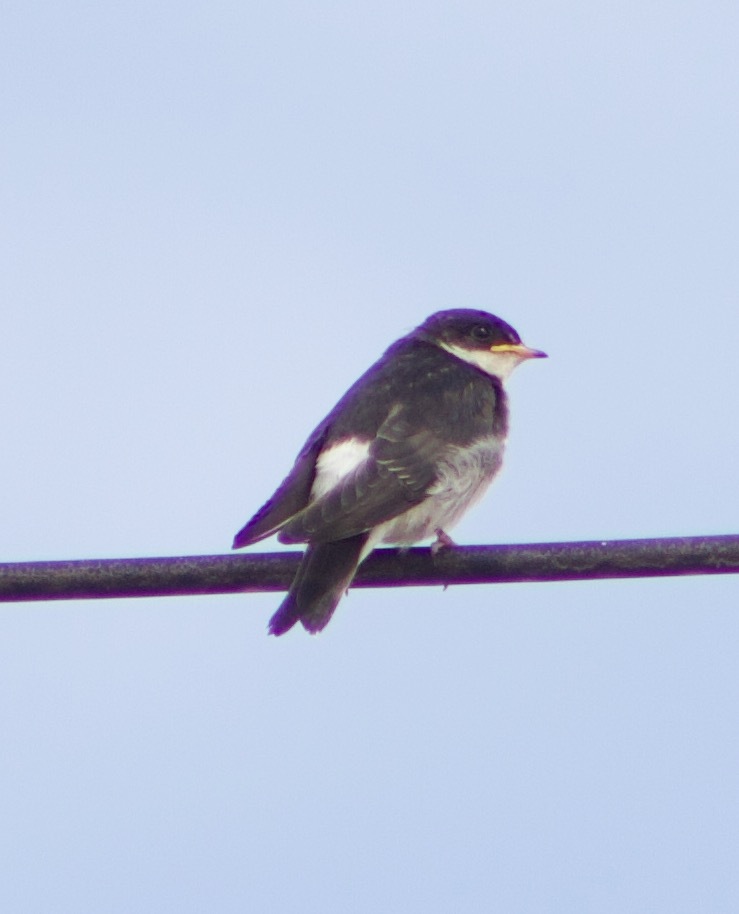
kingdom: Animalia
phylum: Chordata
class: Aves
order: Passeriformes
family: Hirundinidae
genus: Tachycineta
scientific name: Tachycineta leucopyga
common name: Chilean swallow
